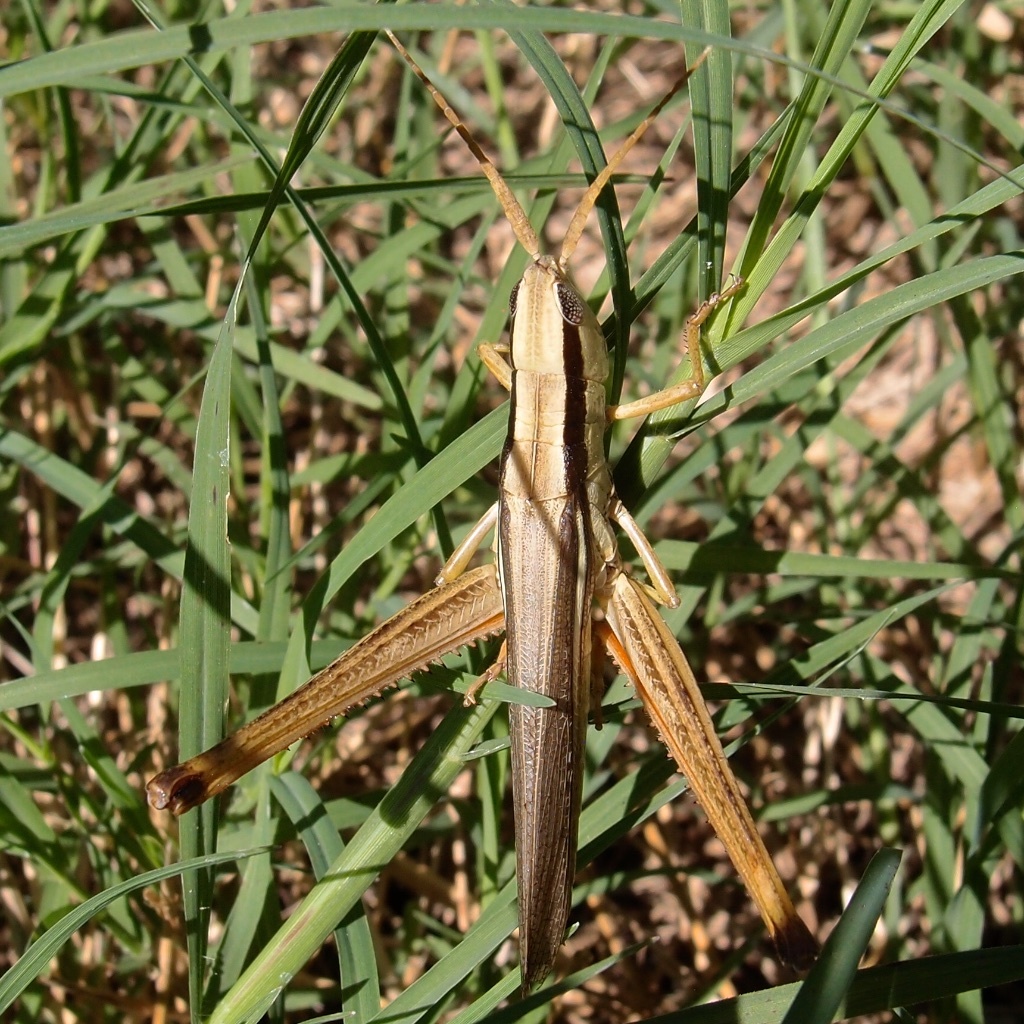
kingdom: Animalia
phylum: Arthropoda
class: Insecta
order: Orthoptera
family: Acrididae
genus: Mermiria
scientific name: Mermiria bivittata
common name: Two-striped mermiria grasshopper
